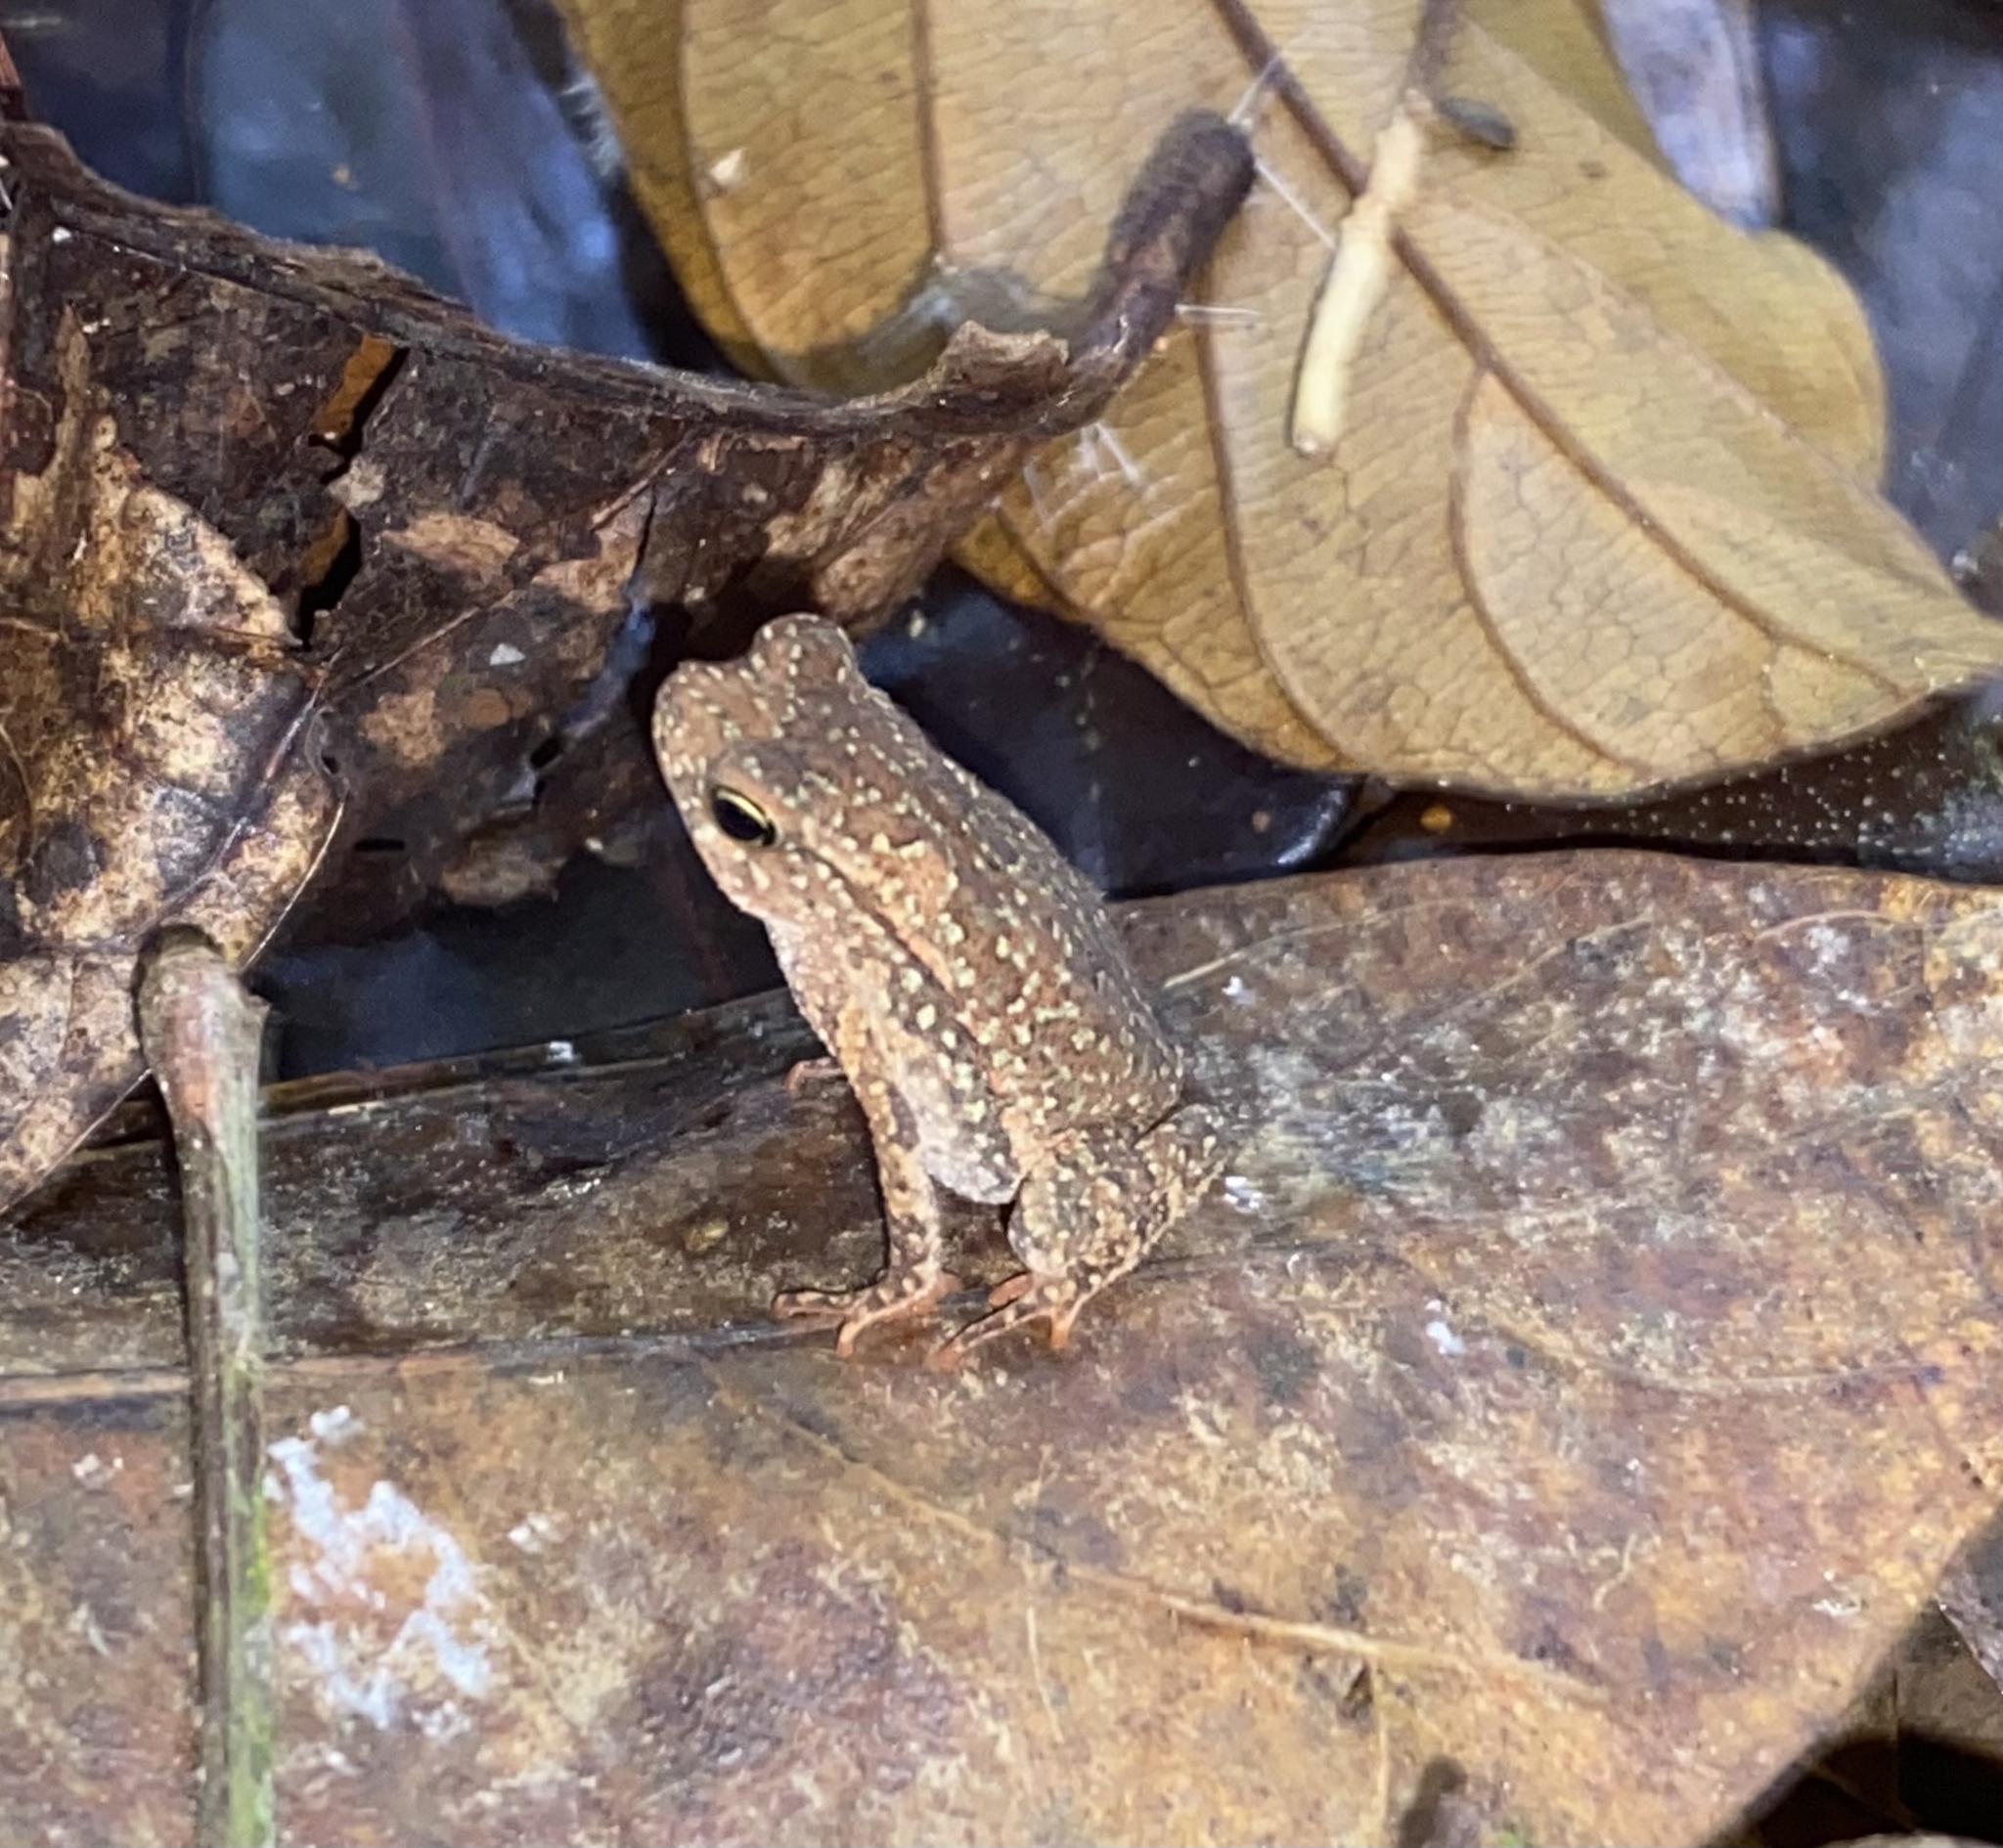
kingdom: Animalia
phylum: Chordata
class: Amphibia
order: Anura
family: Bufonidae
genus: Rhinella
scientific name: Rhinella alata
